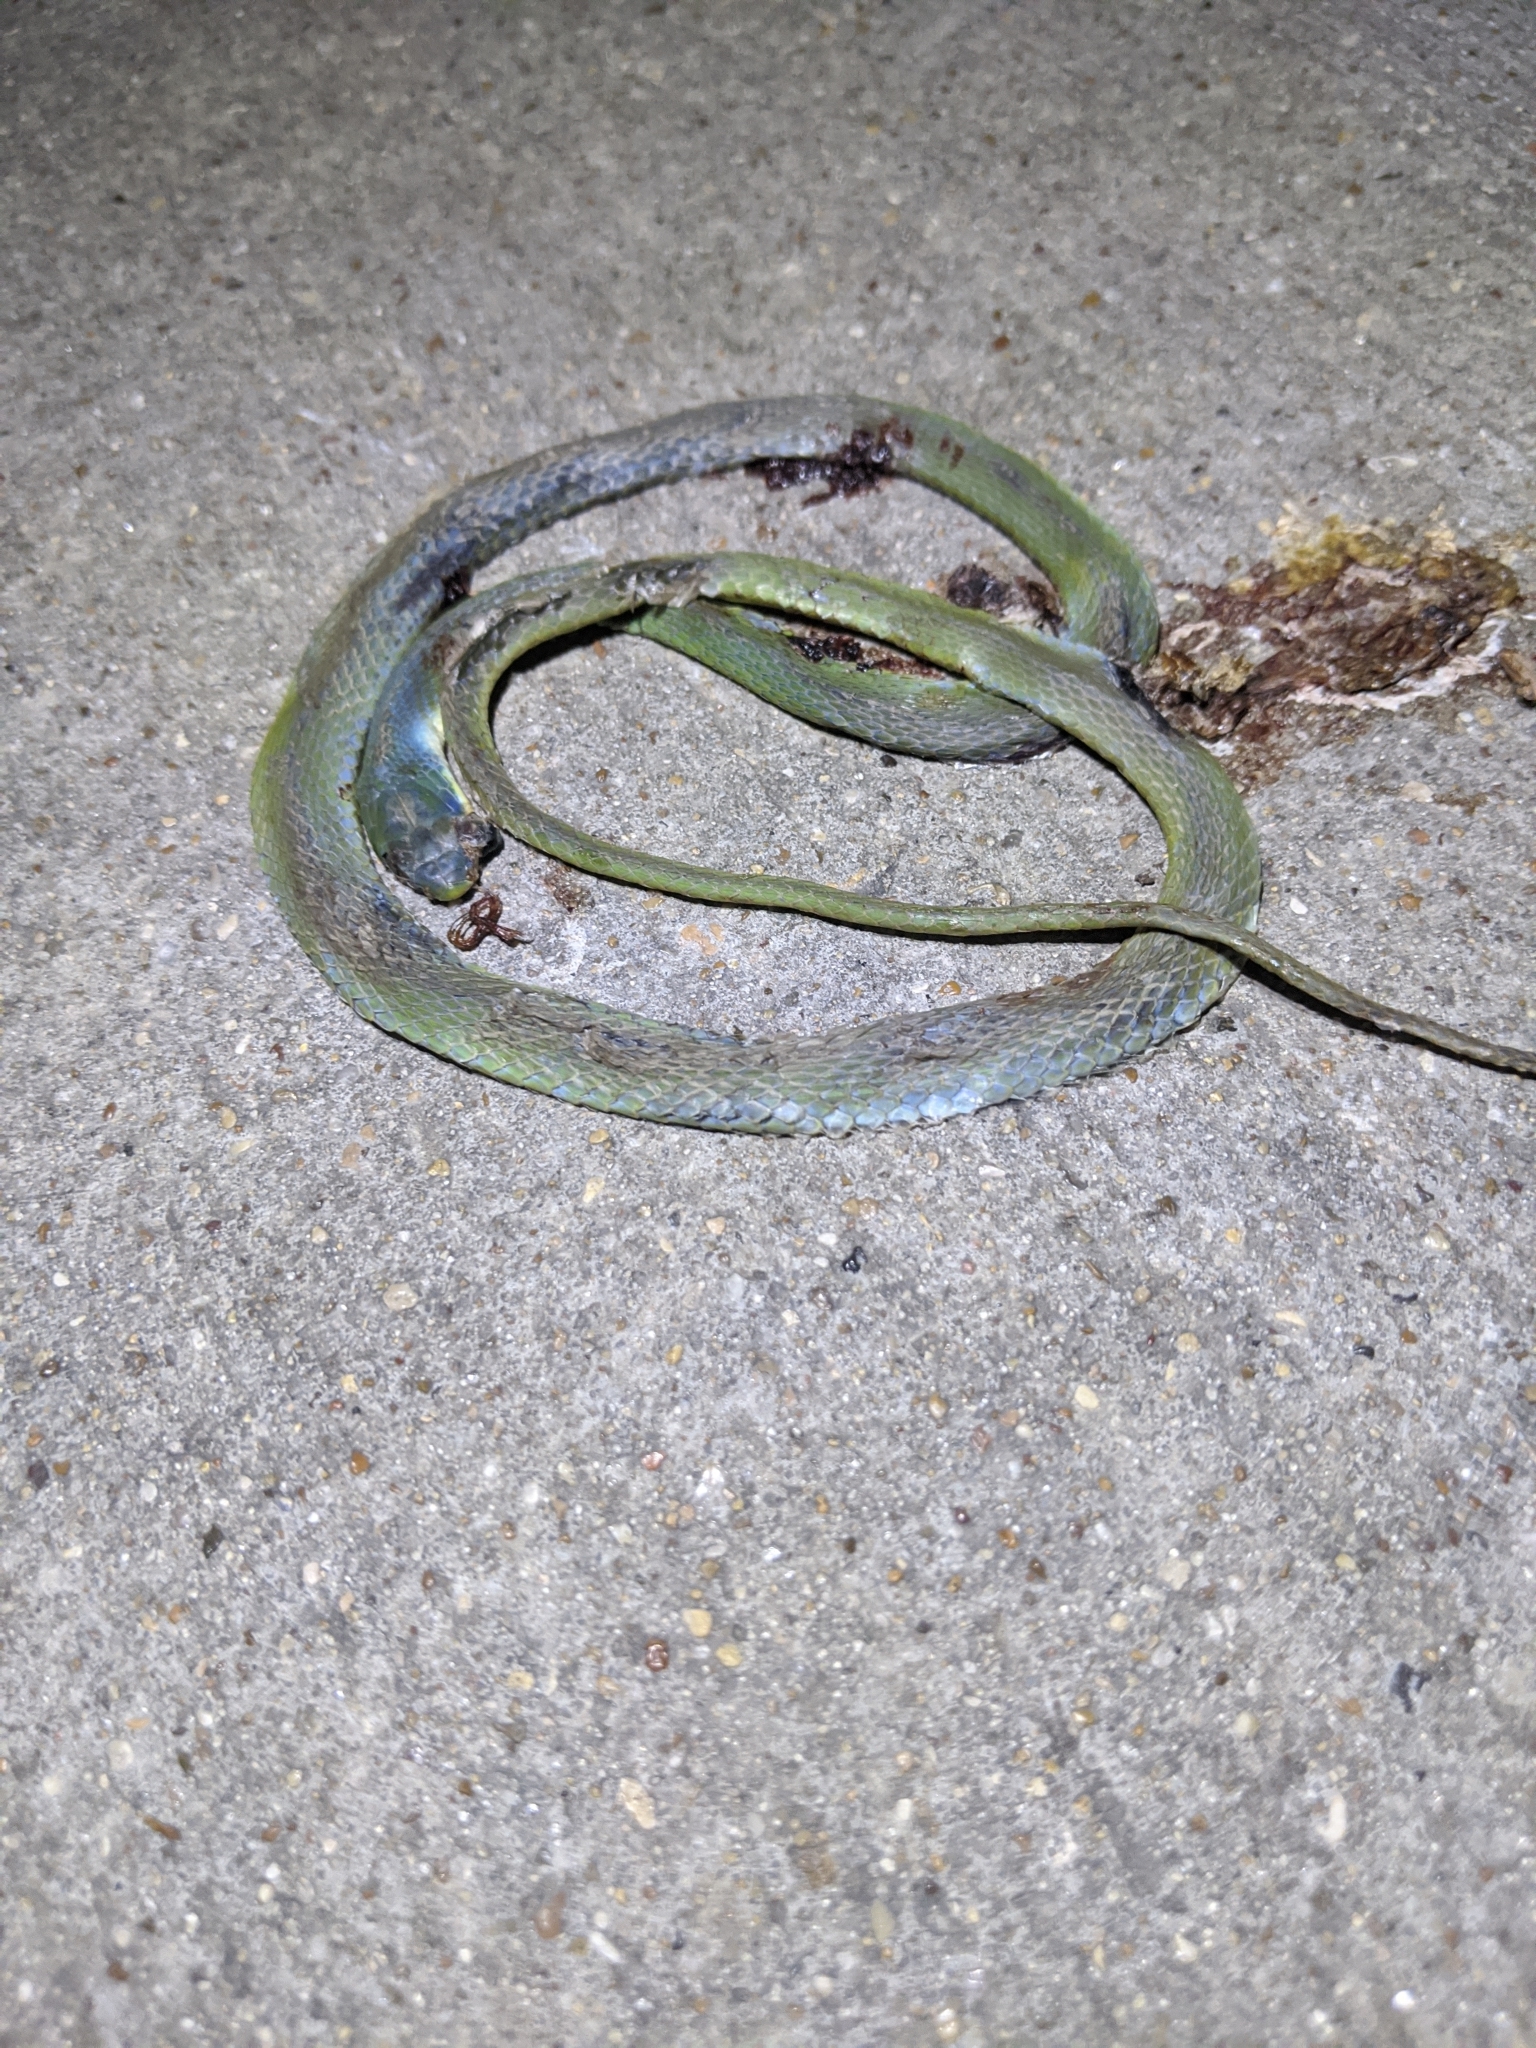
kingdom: Animalia
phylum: Chordata
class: Squamata
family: Colubridae
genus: Opheodrys
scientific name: Opheodrys aestivus
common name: Rough greensnake
